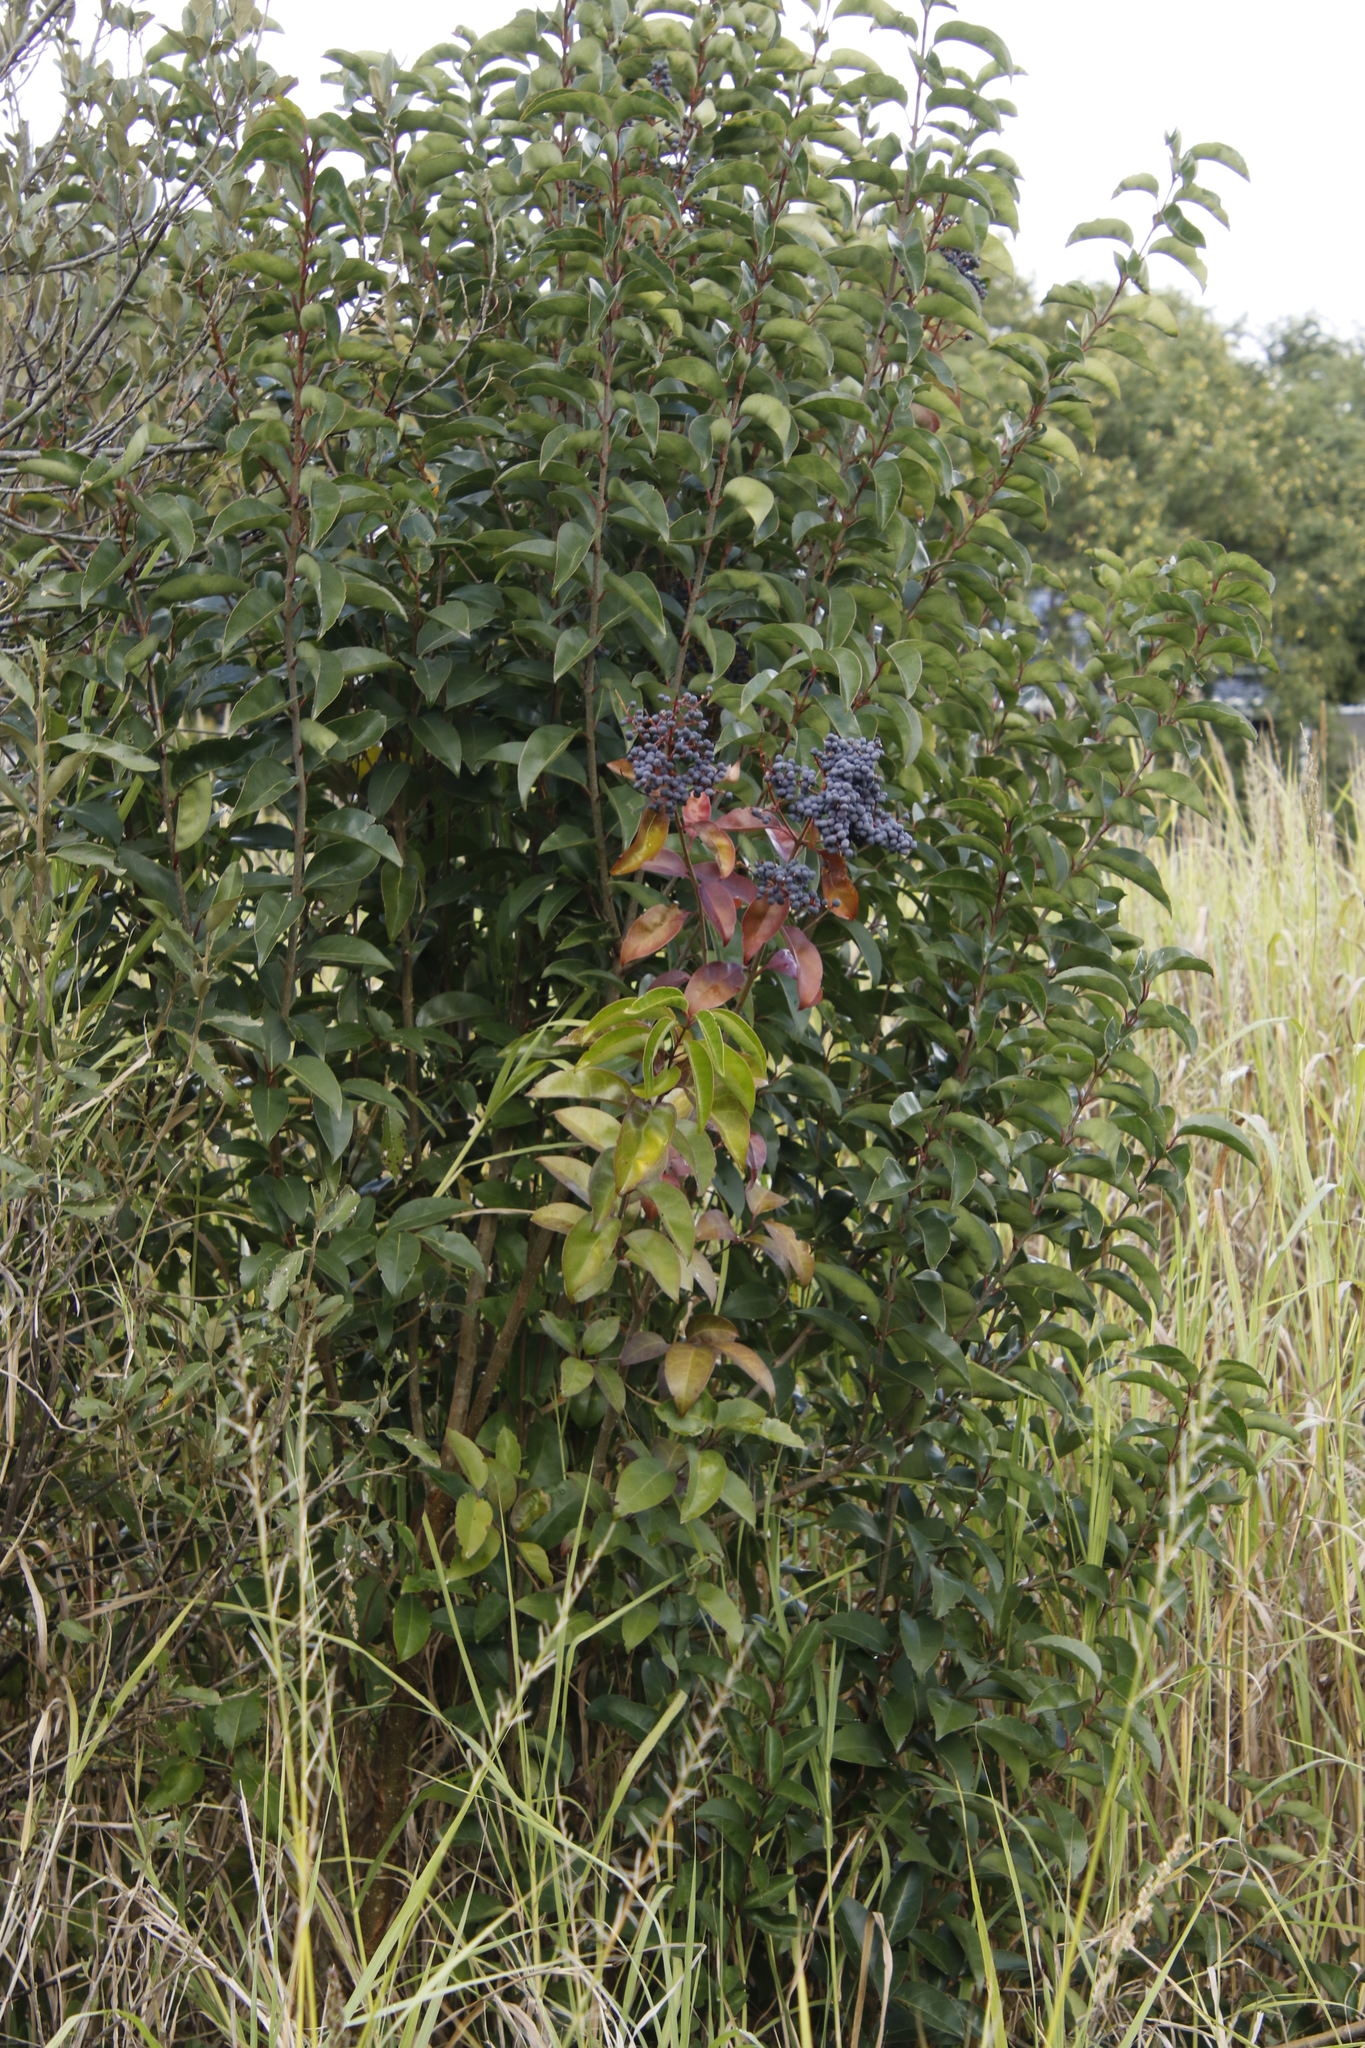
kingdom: Plantae
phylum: Tracheophyta
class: Magnoliopsida
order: Lamiales
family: Oleaceae
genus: Ligustrum
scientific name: Ligustrum lucidum
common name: Glossy privet
